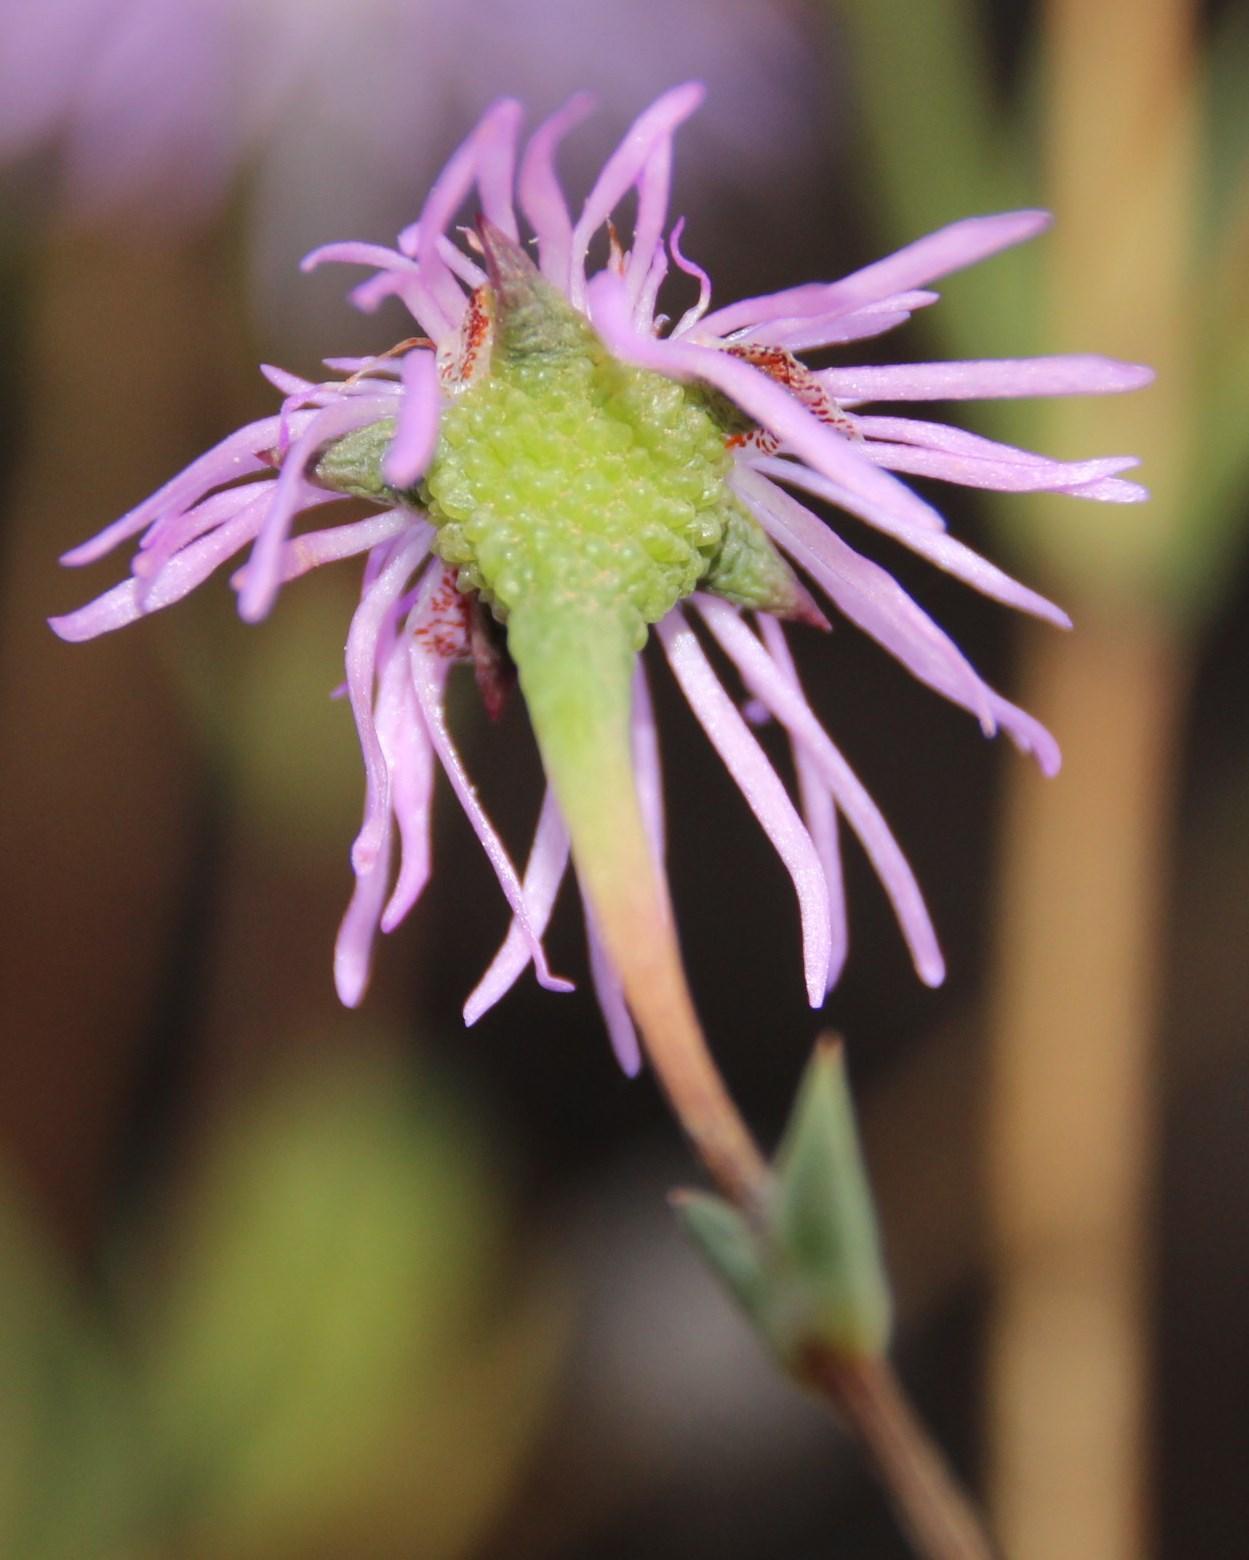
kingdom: Plantae
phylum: Tracheophyta
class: Magnoliopsida
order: Caryophyllales
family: Aizoaceae
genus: Erepsia
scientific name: Erepsia aspera
